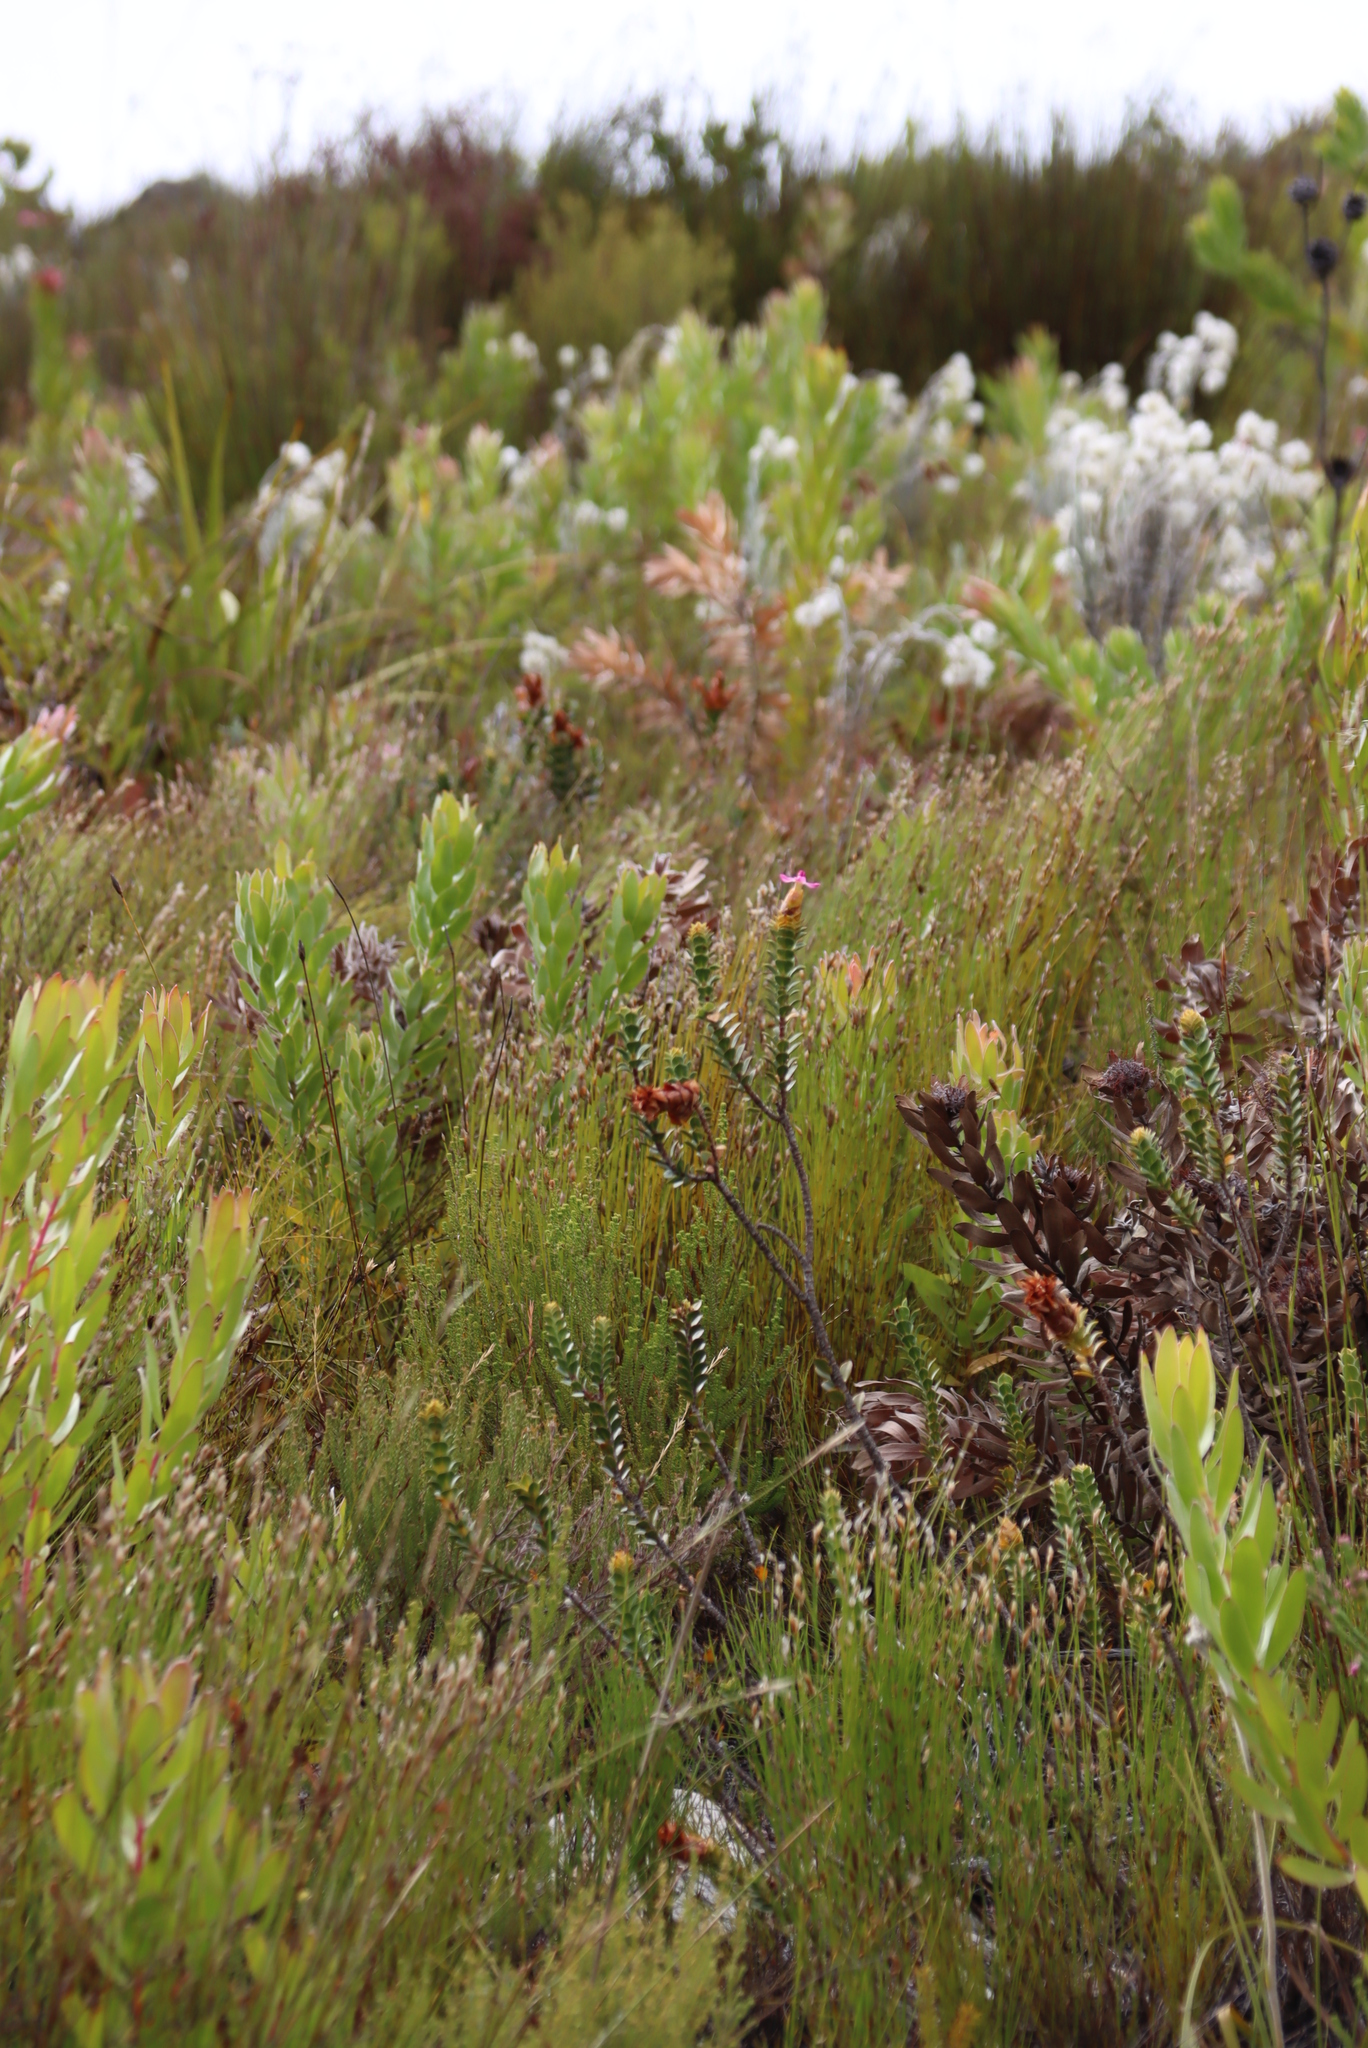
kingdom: Plantae
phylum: Tracheophyta
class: Magnoliopsida
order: Myrtales
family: Penaeaceae
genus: Saltera
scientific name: Saltera sarcocolla
